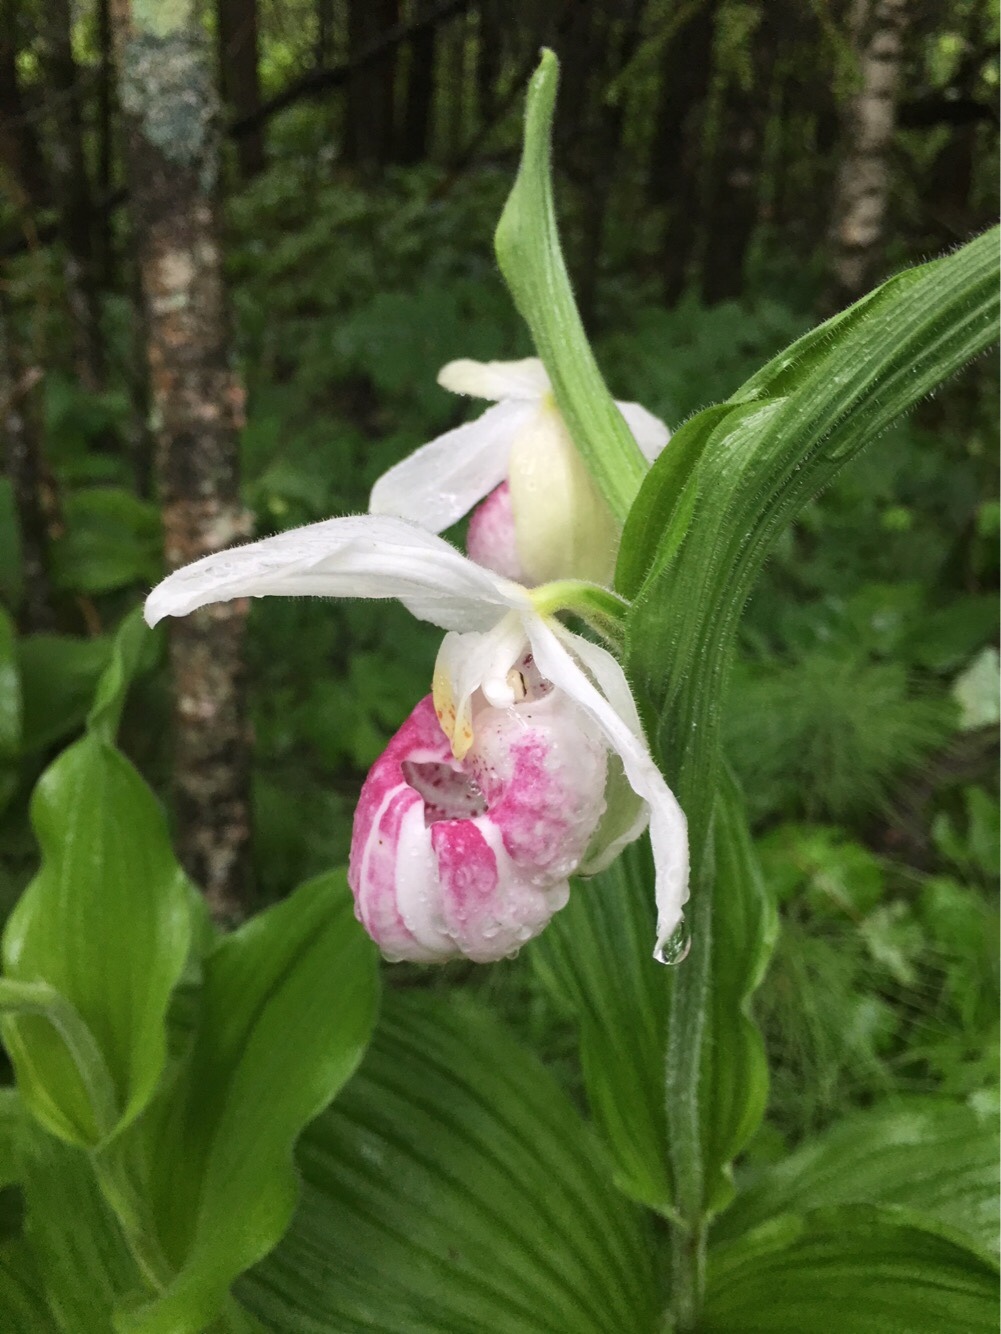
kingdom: Plantae
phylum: Tracheophyta
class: Liliopsida
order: Asparagales
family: Orchidaceae
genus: Cypripedium
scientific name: Cypripedium reginae
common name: Queen lady's-slipper
